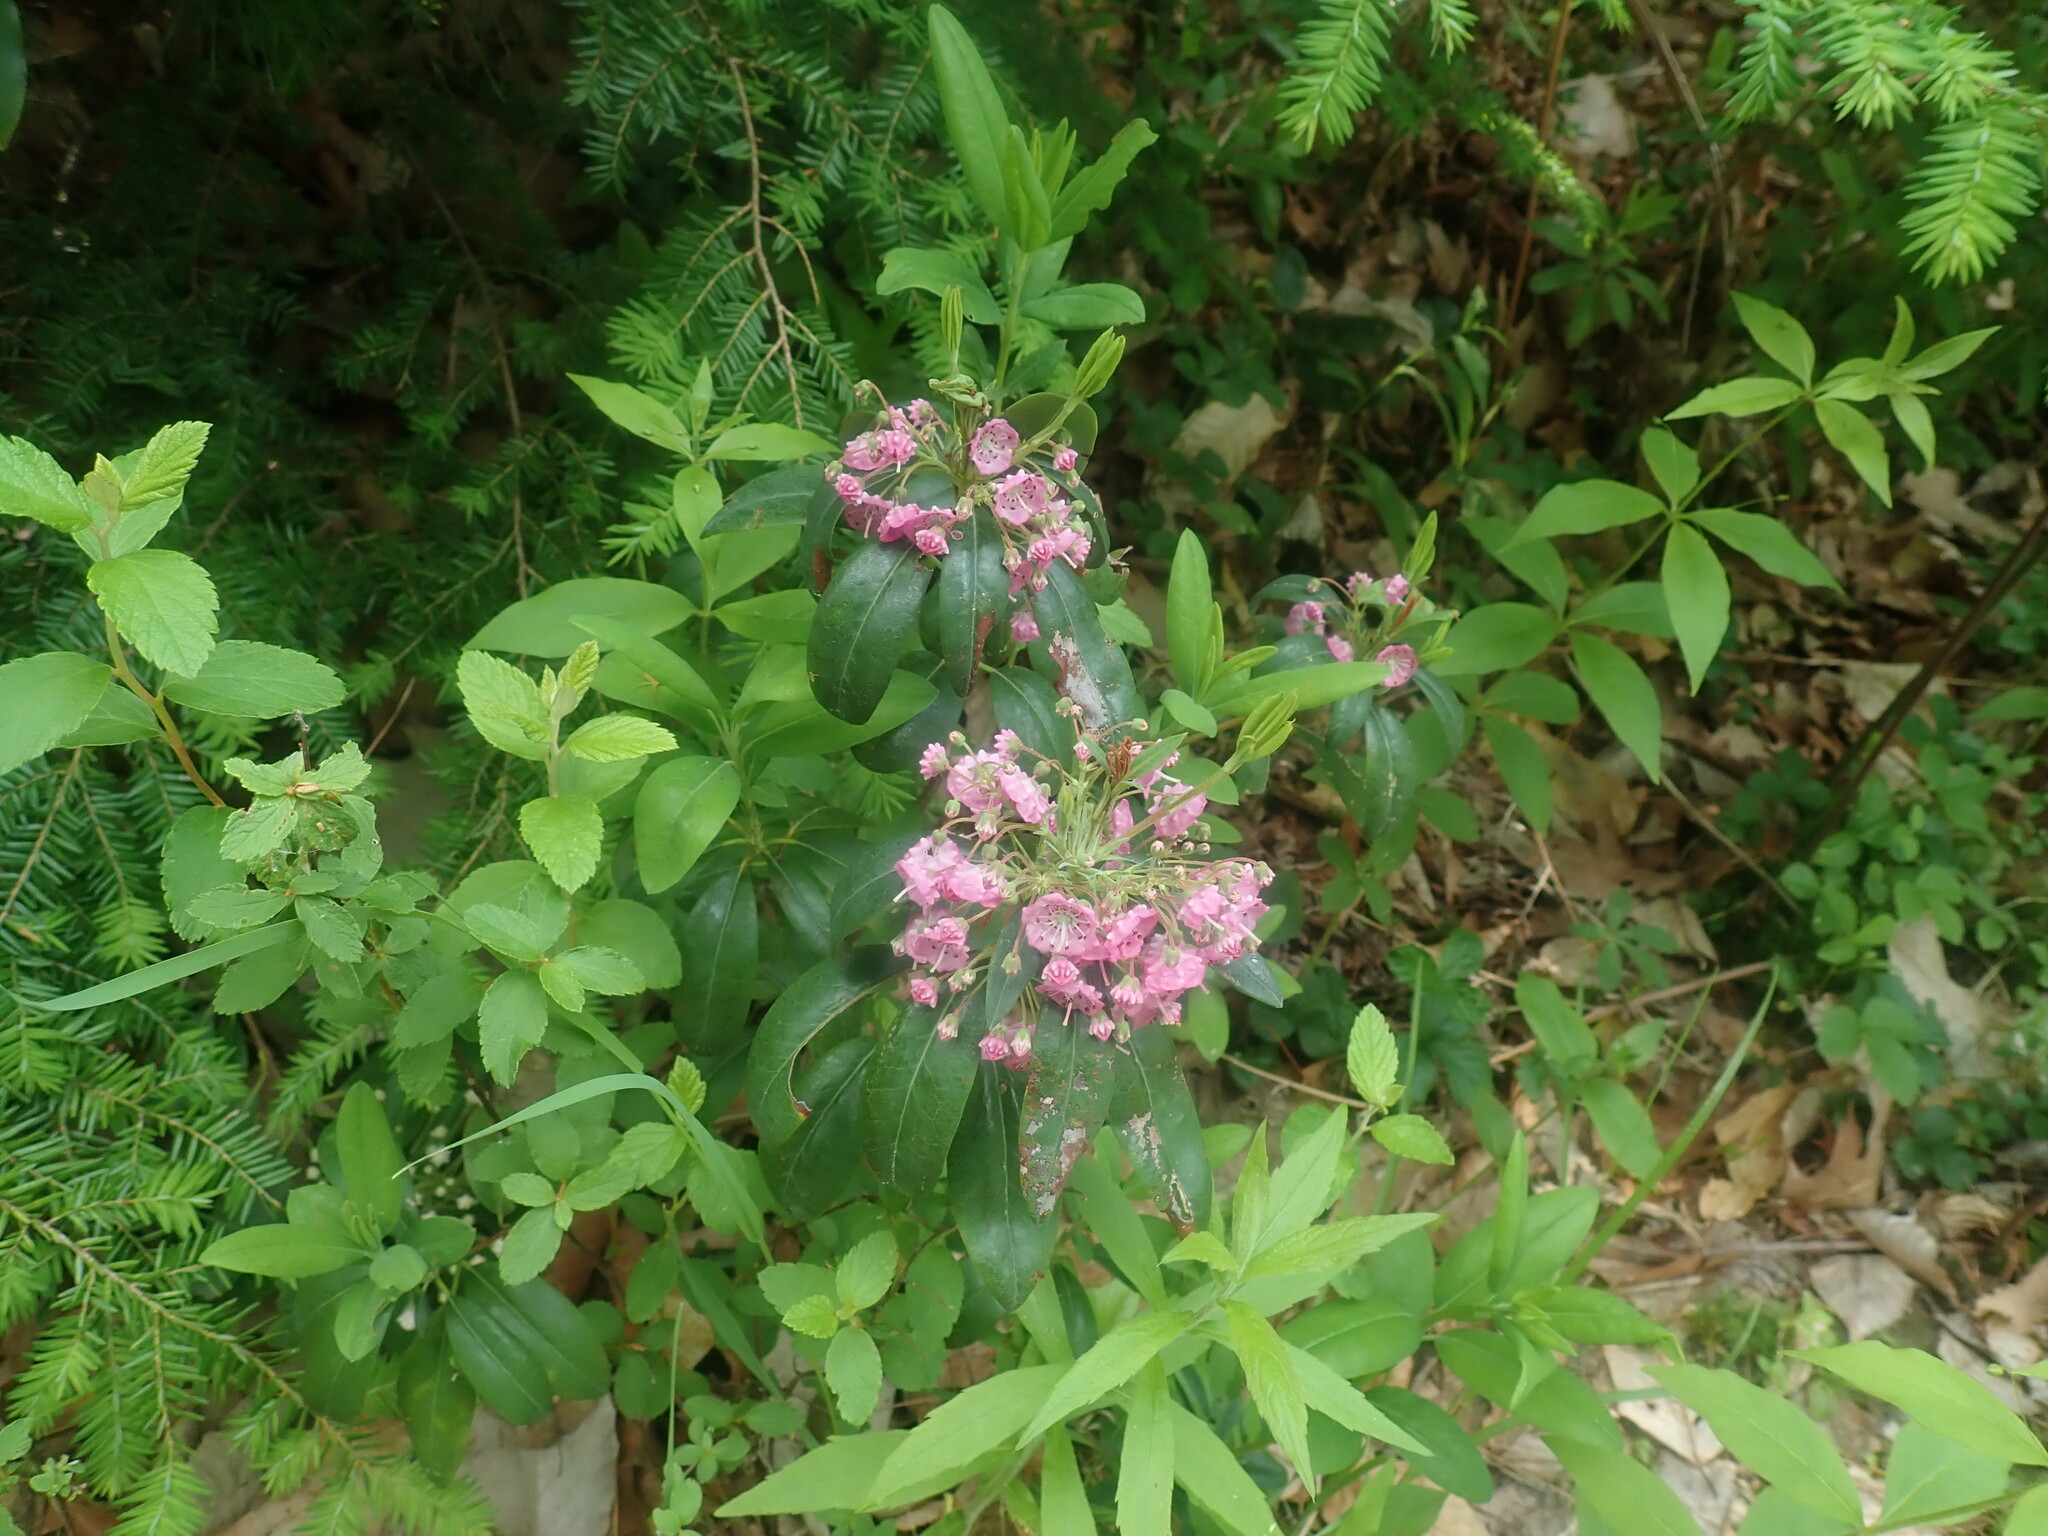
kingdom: Plantae
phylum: Tracheophyta
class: Magnoliopsida
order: Ericales
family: Ericaceae
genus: Kalmia
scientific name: Kalmia angustifolia
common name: Sheep-laurel
